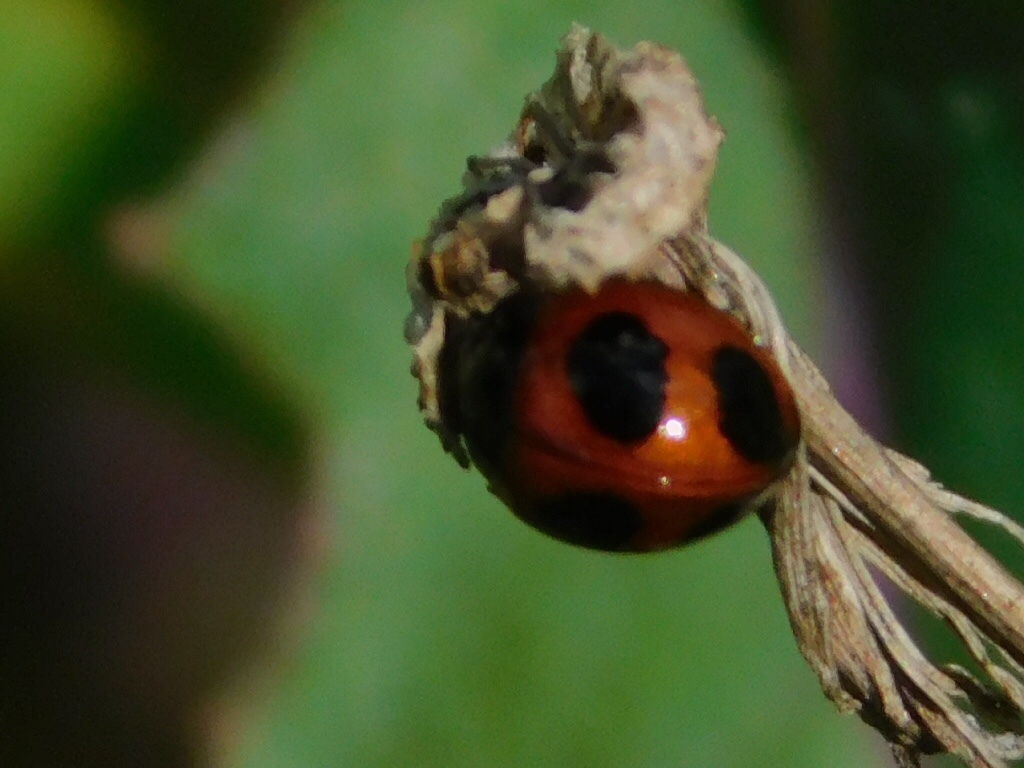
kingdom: Animalia
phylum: Arthropoda
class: Insecta
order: Coleoptera
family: Coccinellidae
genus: Exochomus
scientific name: Exochomus childreni
